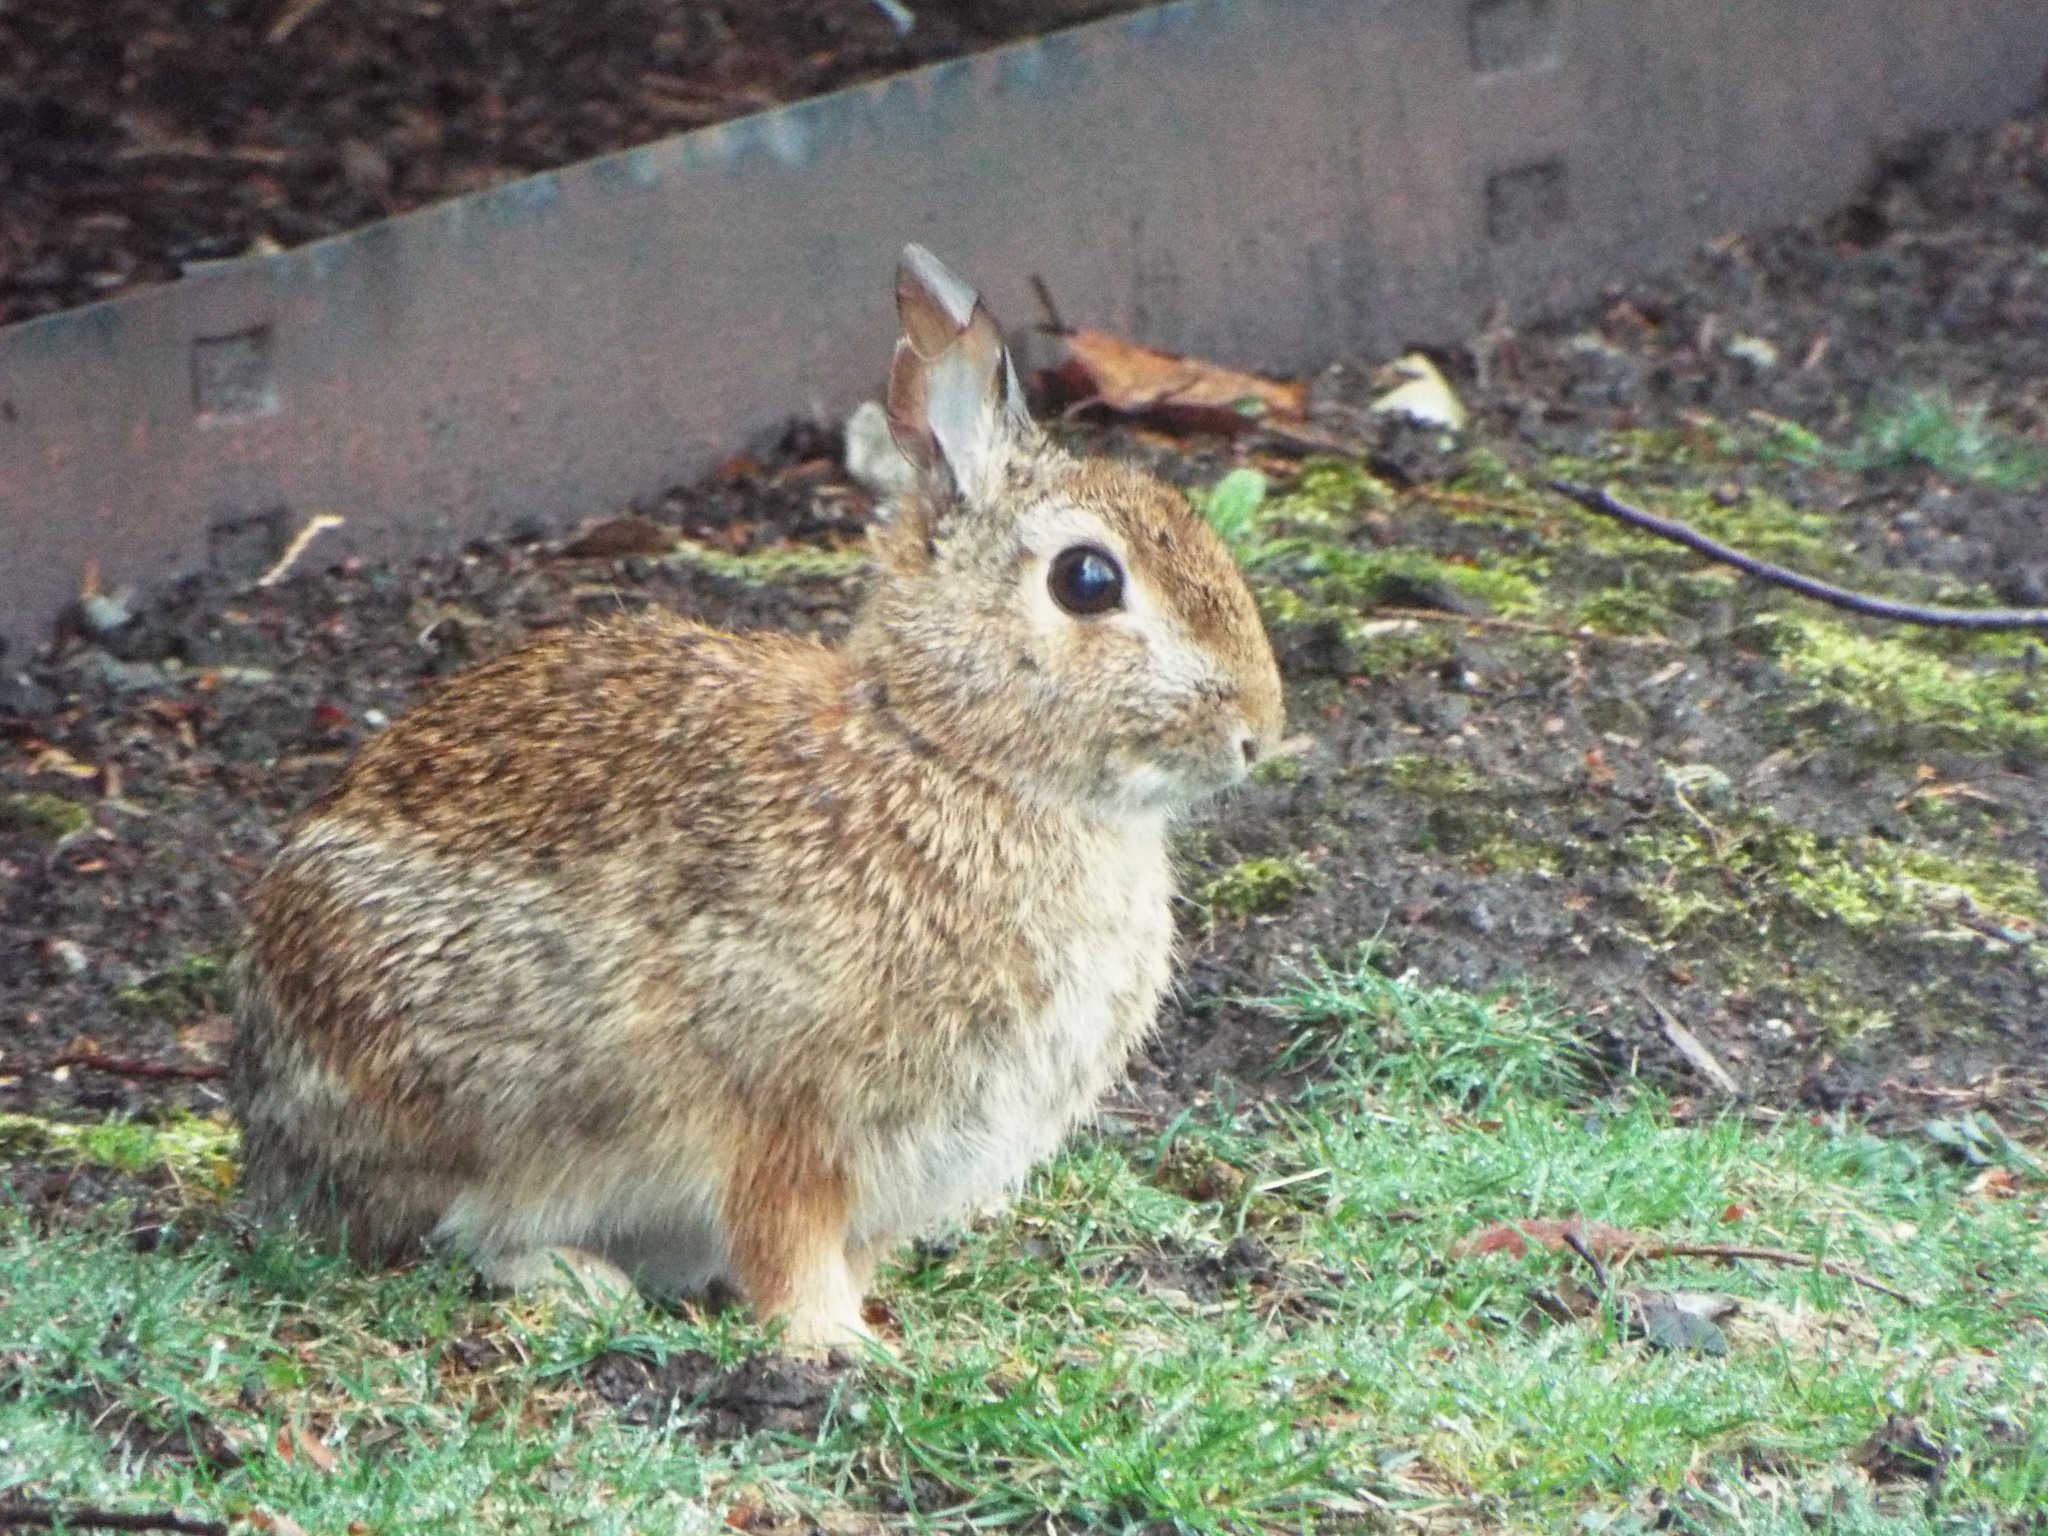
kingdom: Animalia
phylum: Chordata
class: Mammalia
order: Lagomorpha
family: Leporidae
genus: Sylvilagus
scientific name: Sylvilagus floridanus
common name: Eastern cottontail
